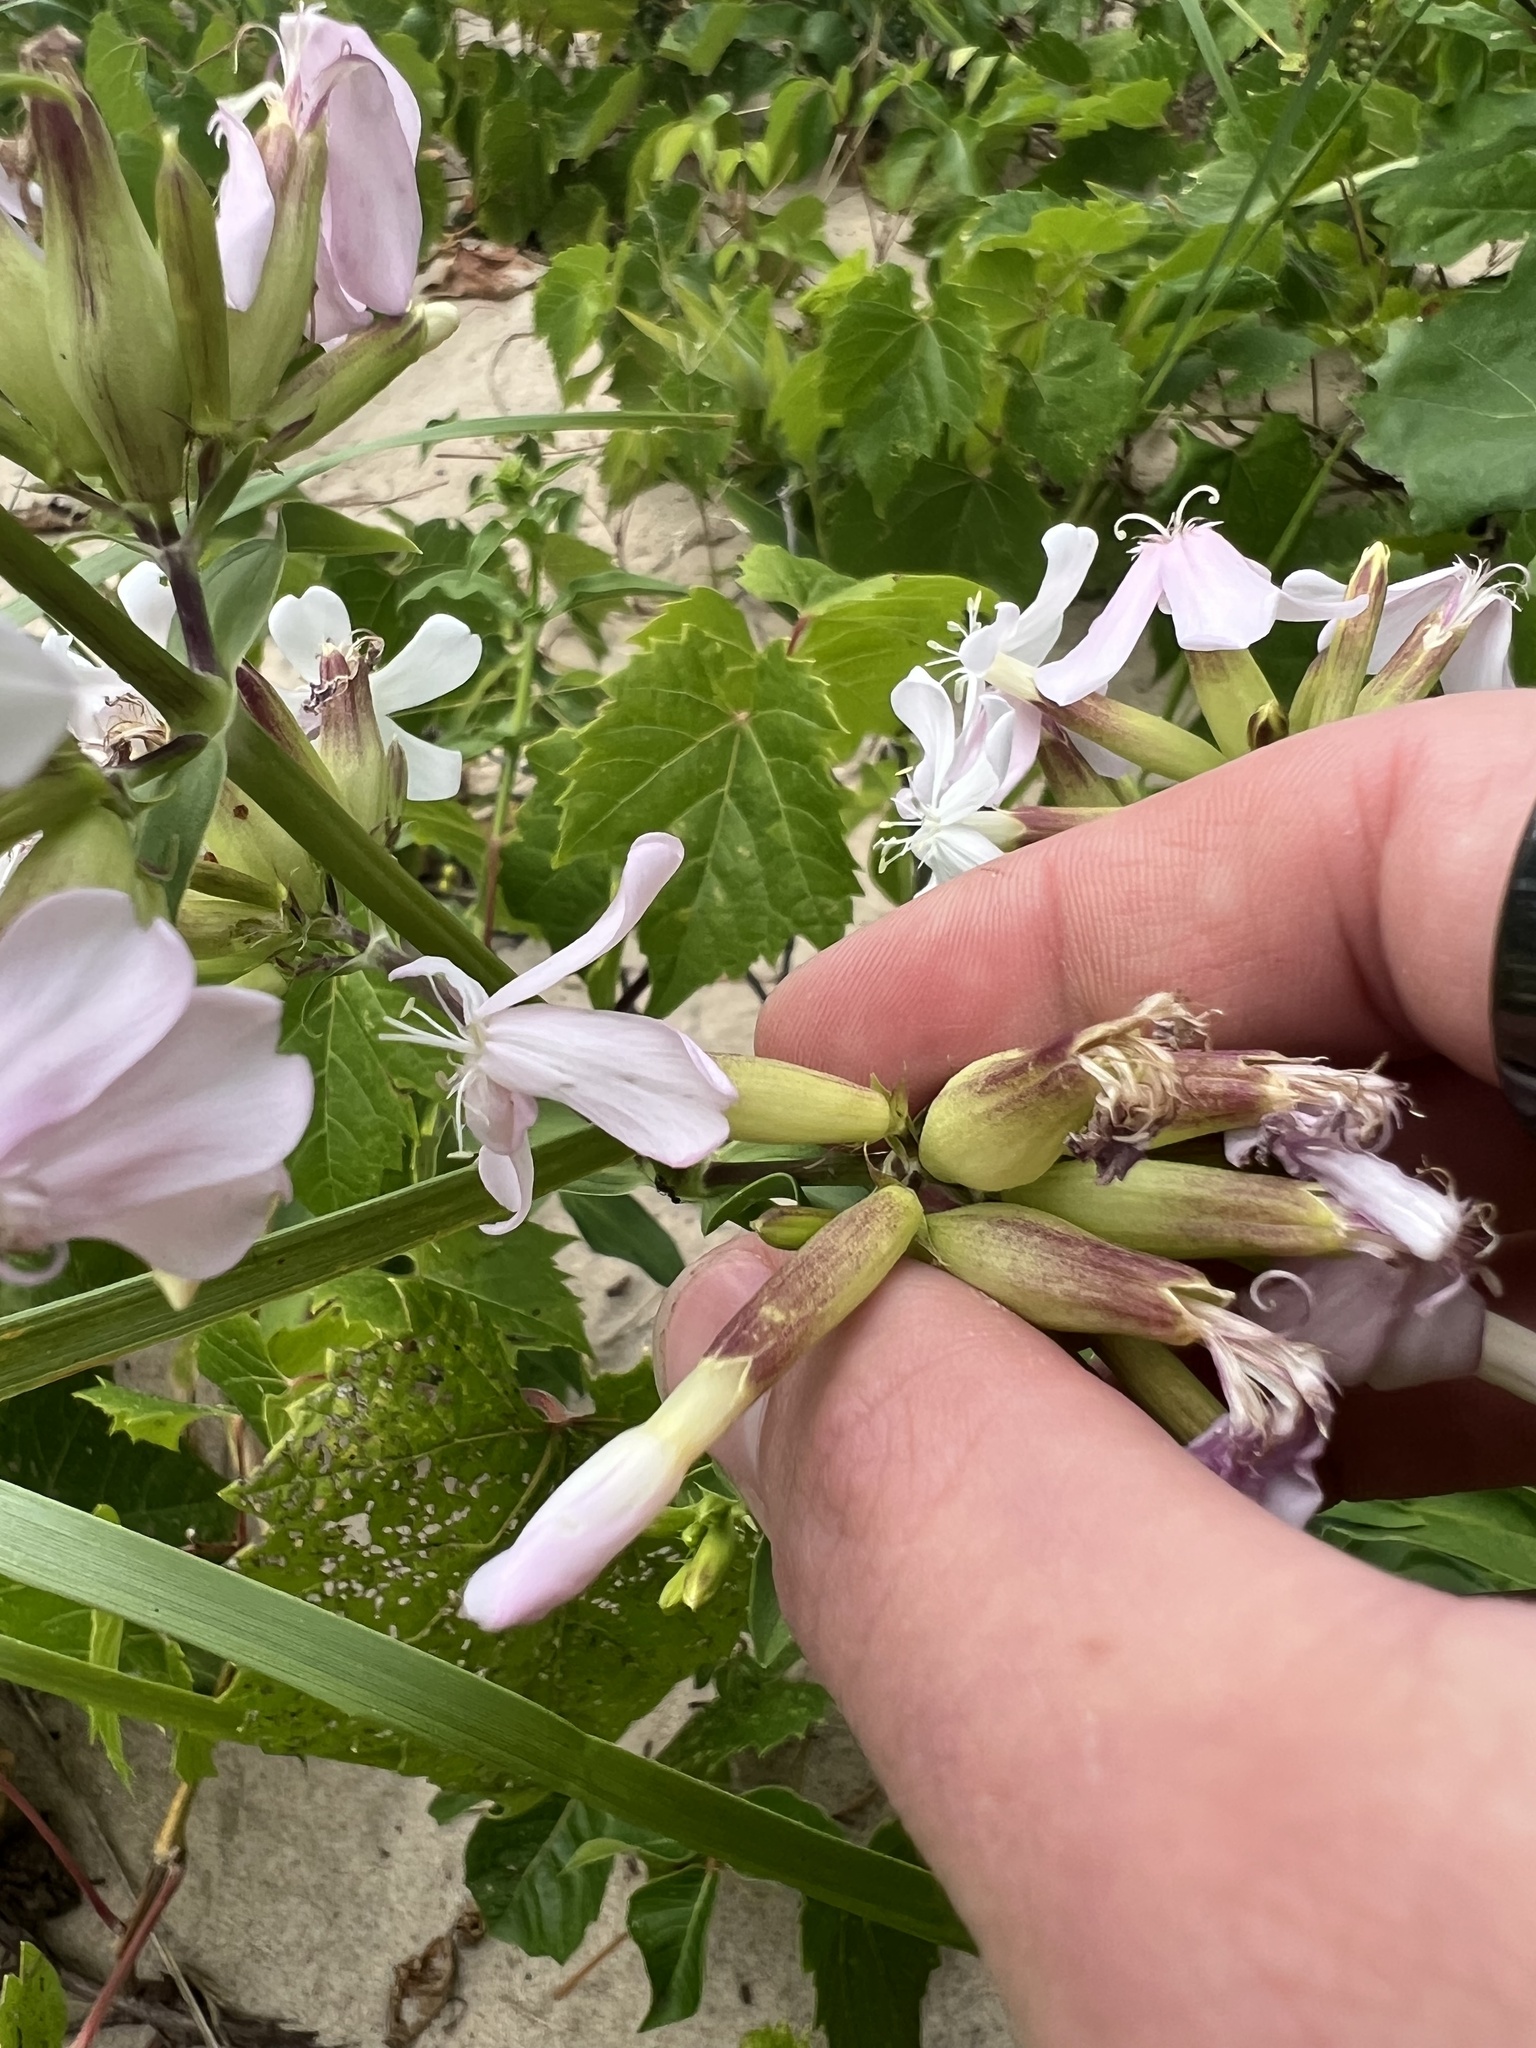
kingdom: Plantae
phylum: Tracheophyta
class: Magnoliopsida
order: Caryophyllales
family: Caryophyllaceae
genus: Saponaria
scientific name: Saponaria officinalis
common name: Soapwort
